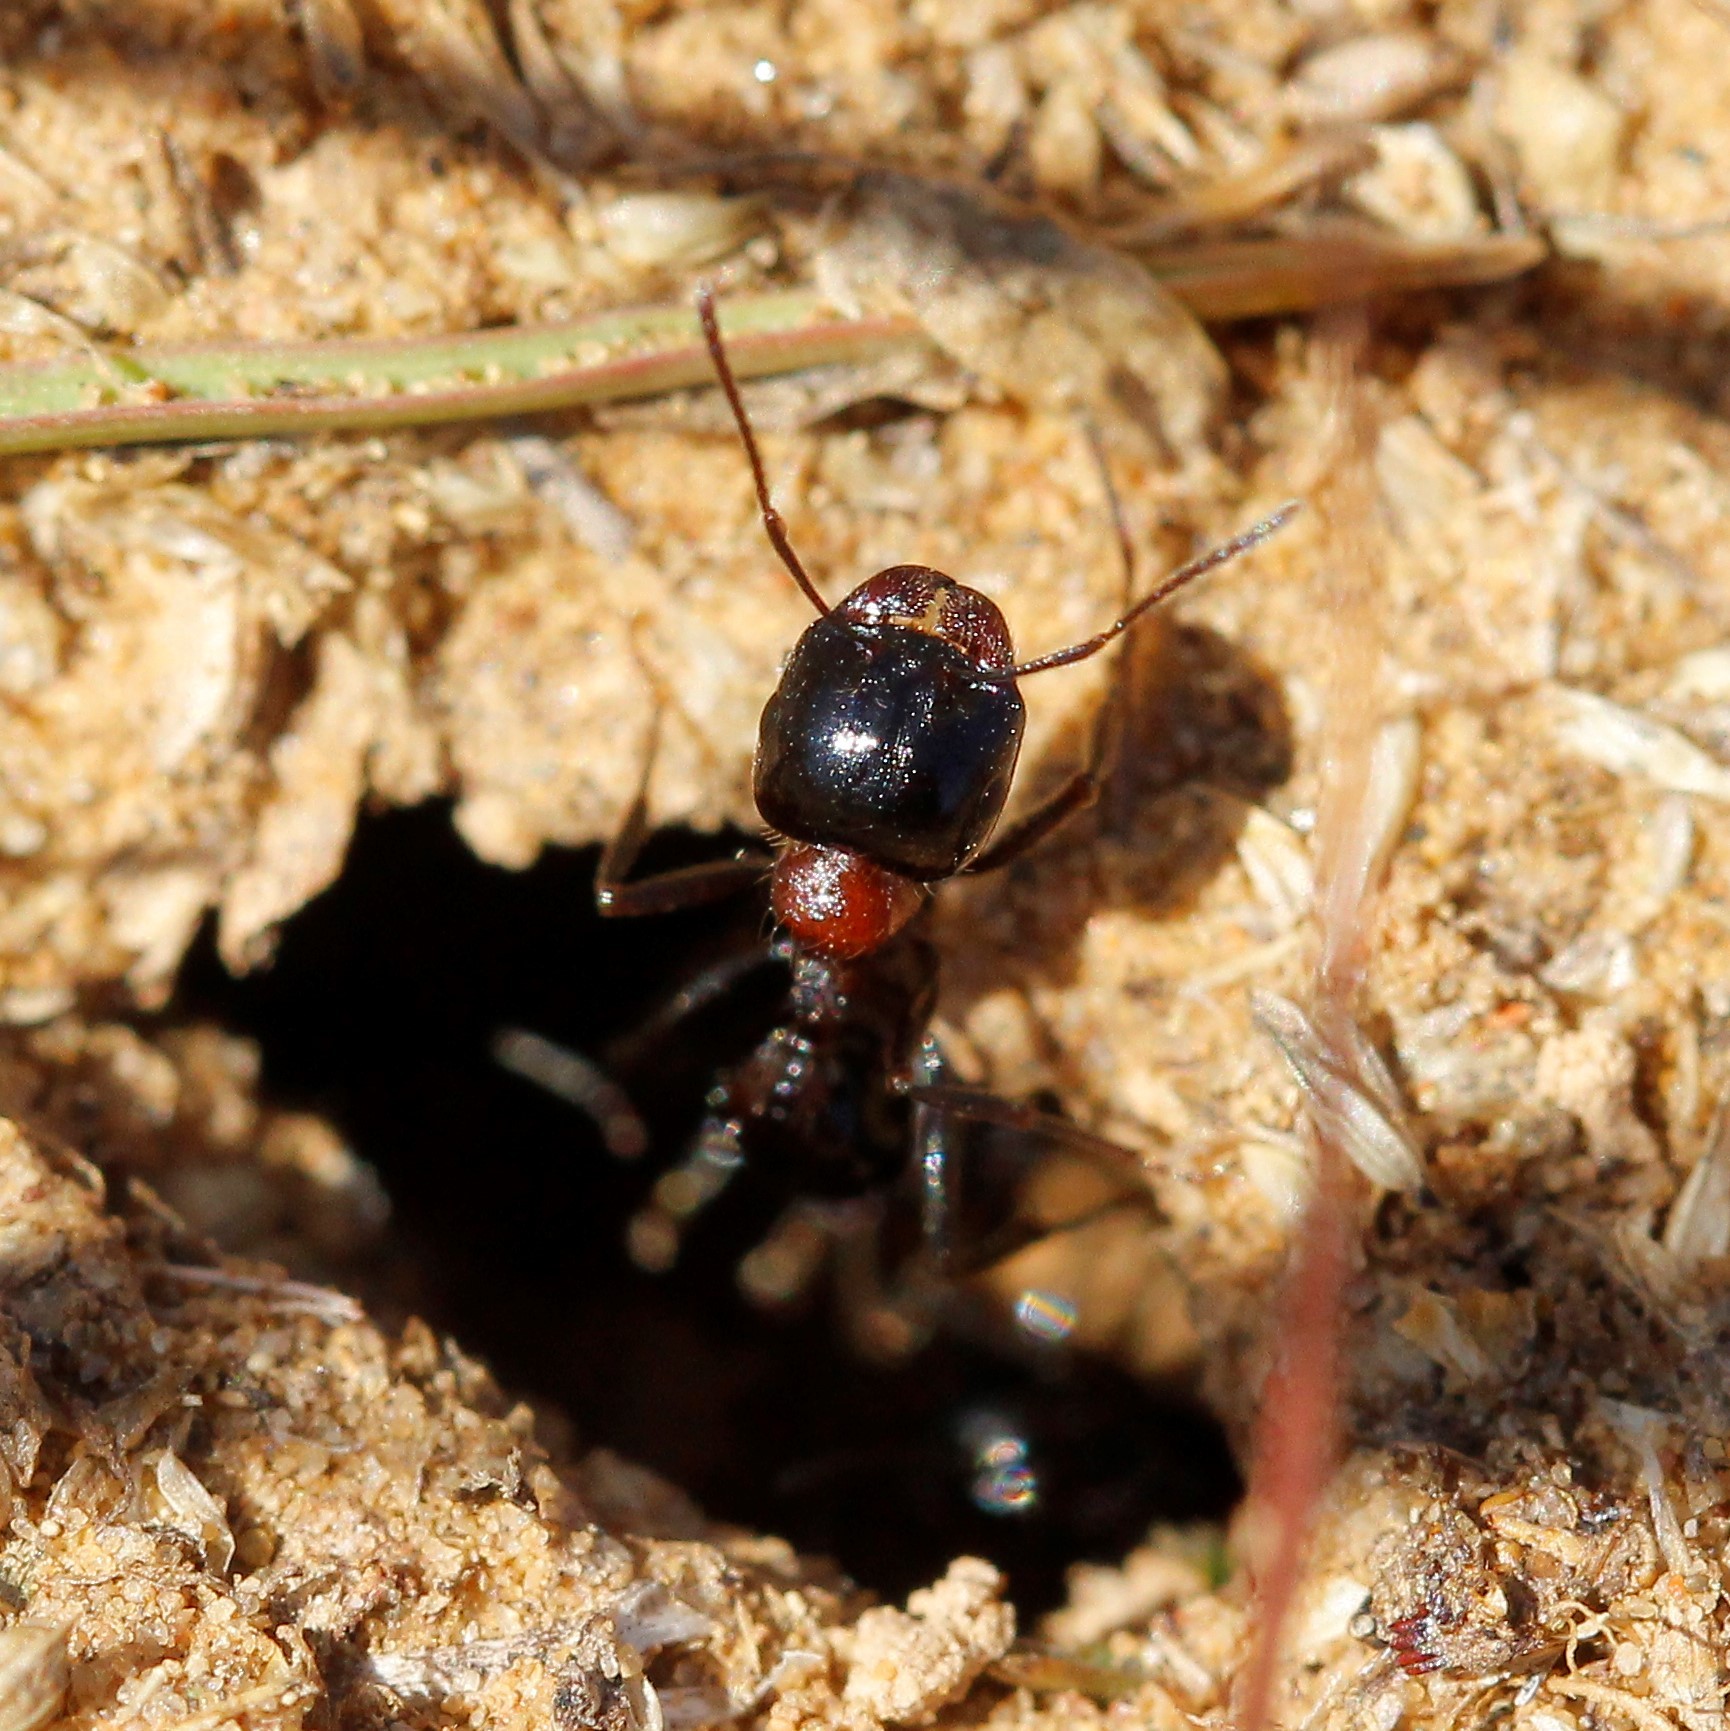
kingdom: Animalia
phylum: Arthropoda
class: Insecta
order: Hymenoptera
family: Formicidae
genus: Messor
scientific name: Messor denticulatus
